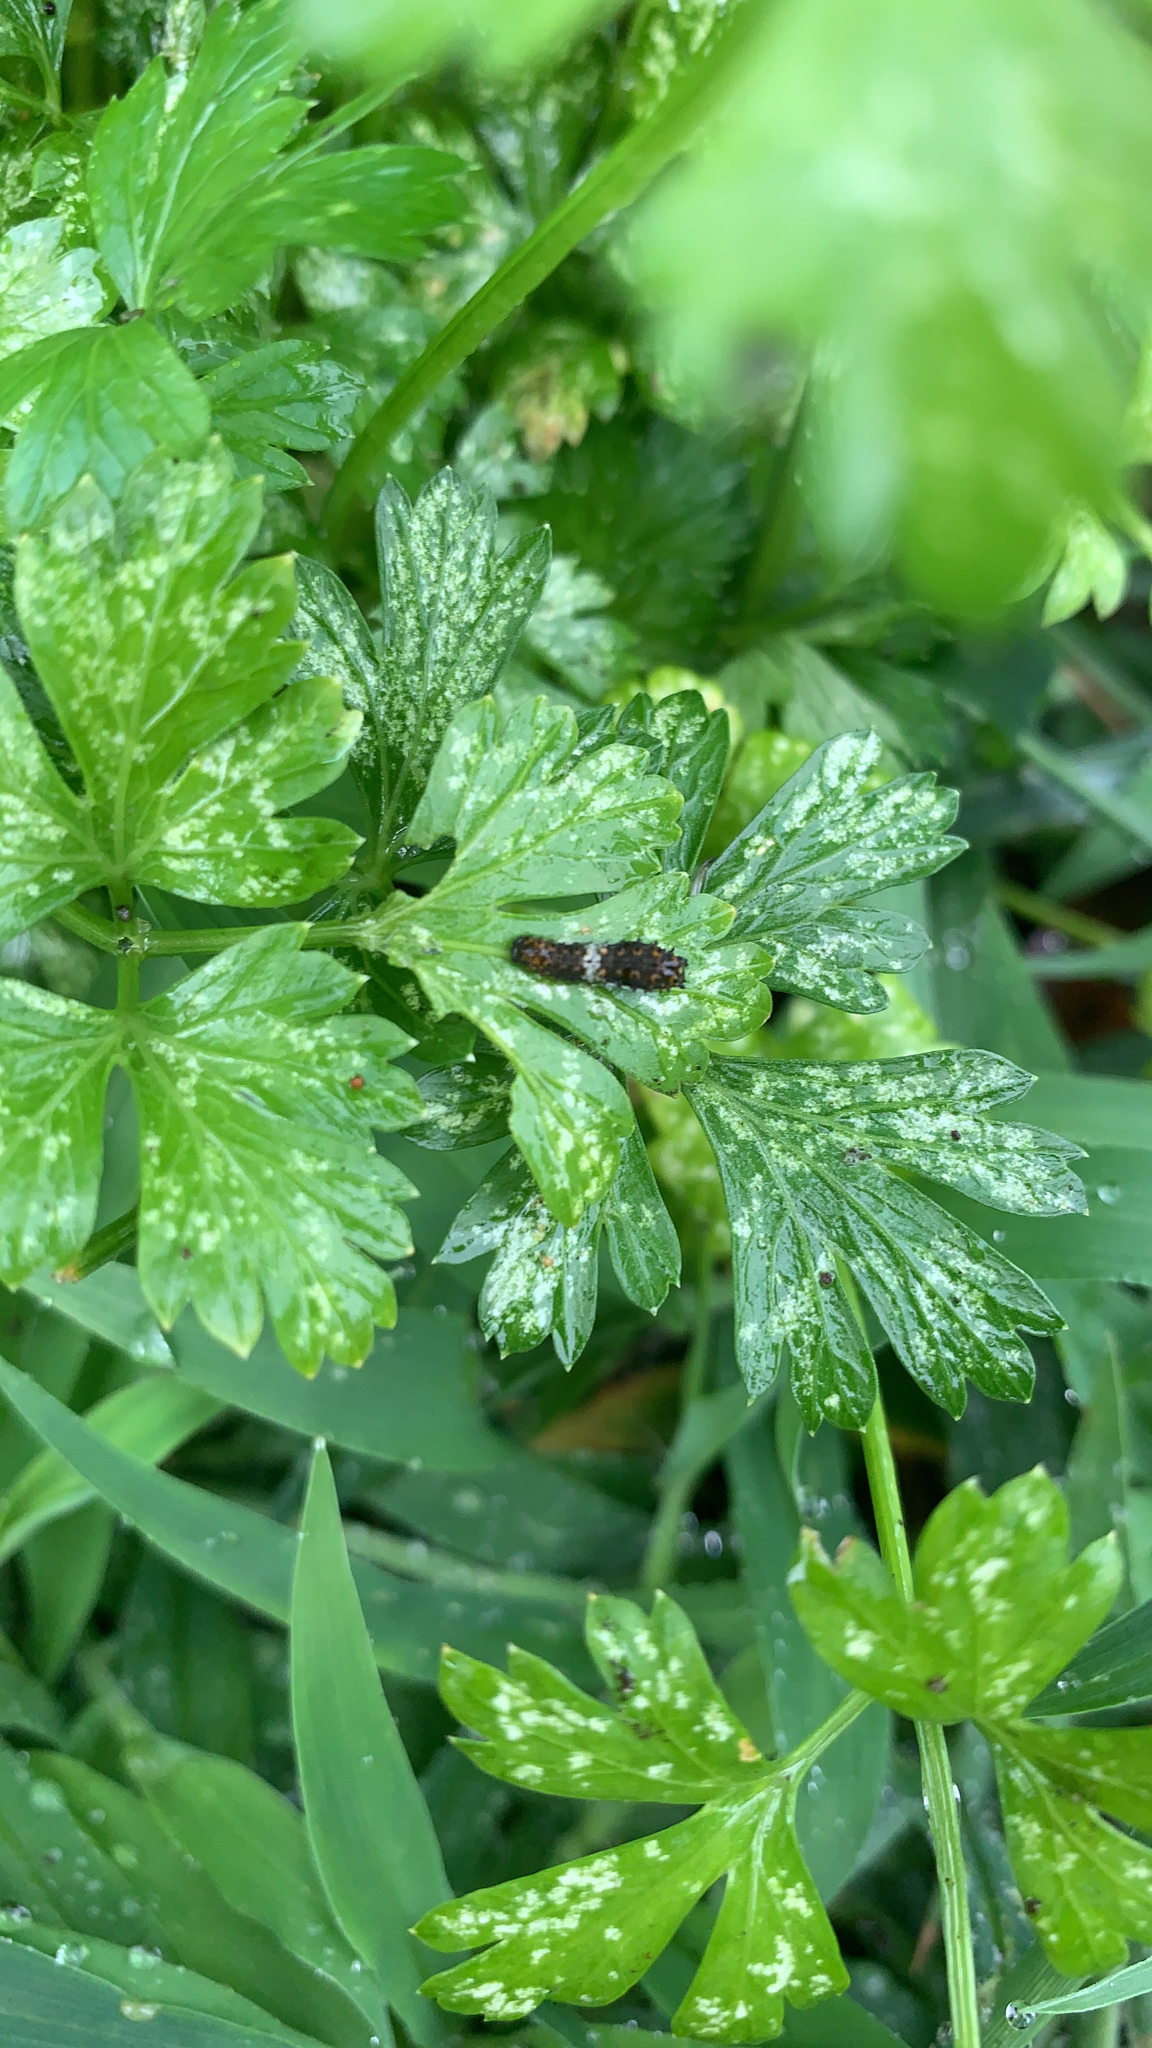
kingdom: Animalia
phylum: Arthropoda
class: Insecta
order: Lepidoptera
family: Papilionidae
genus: Papilio
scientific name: Papilio polyxenes
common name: Black swallowtail
